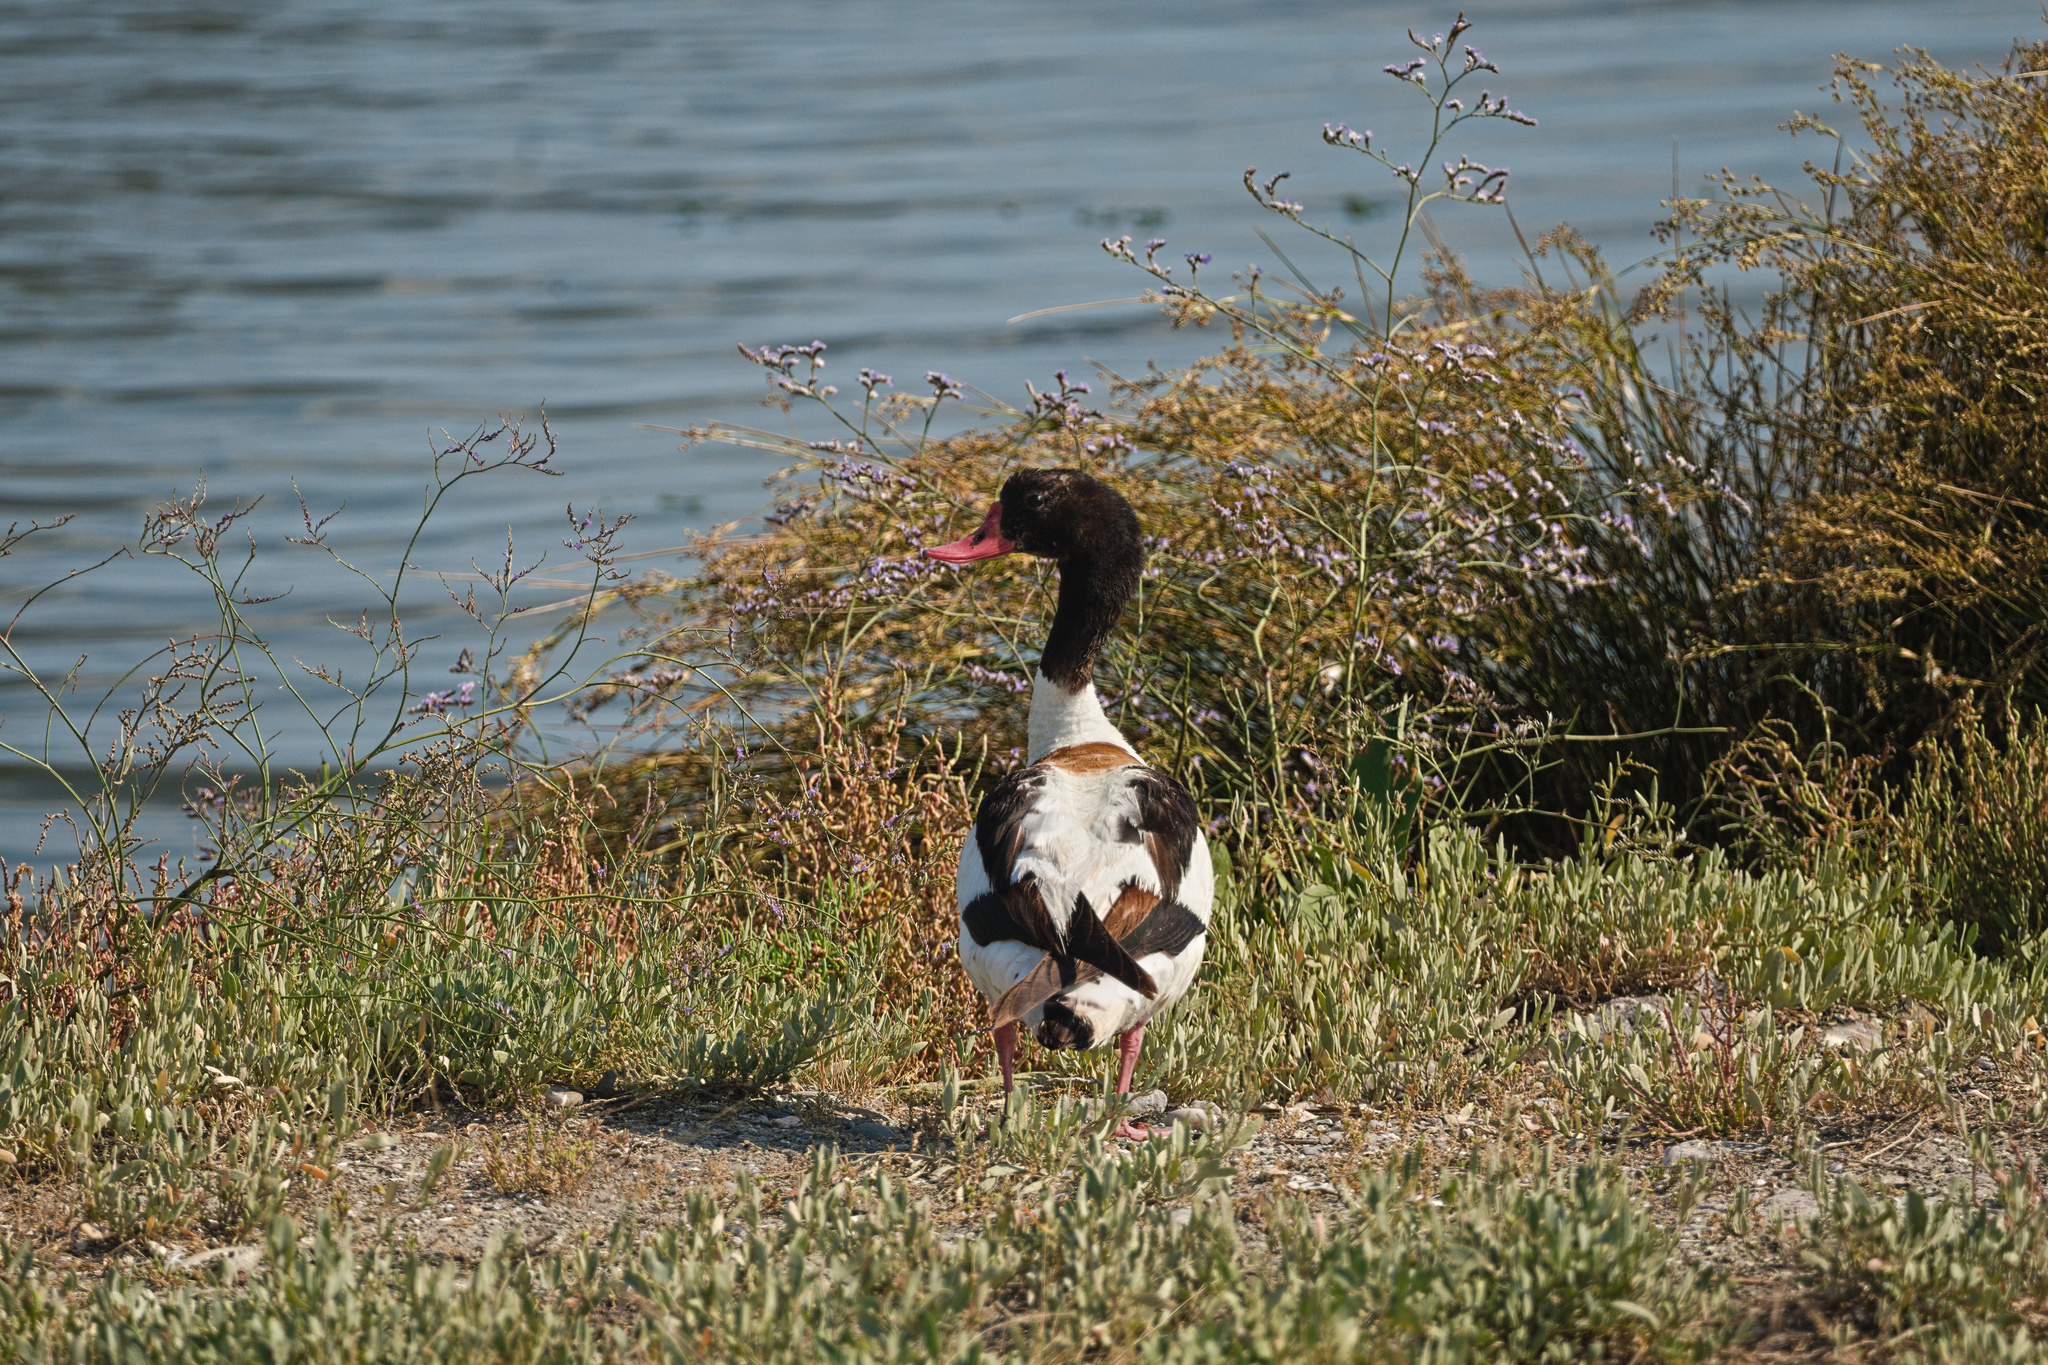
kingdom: Animalia
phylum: Chordata
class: Aves
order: Anseriformes
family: Anatidae
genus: Tadorna
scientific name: Tadorna tadorna
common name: Common shelduck
